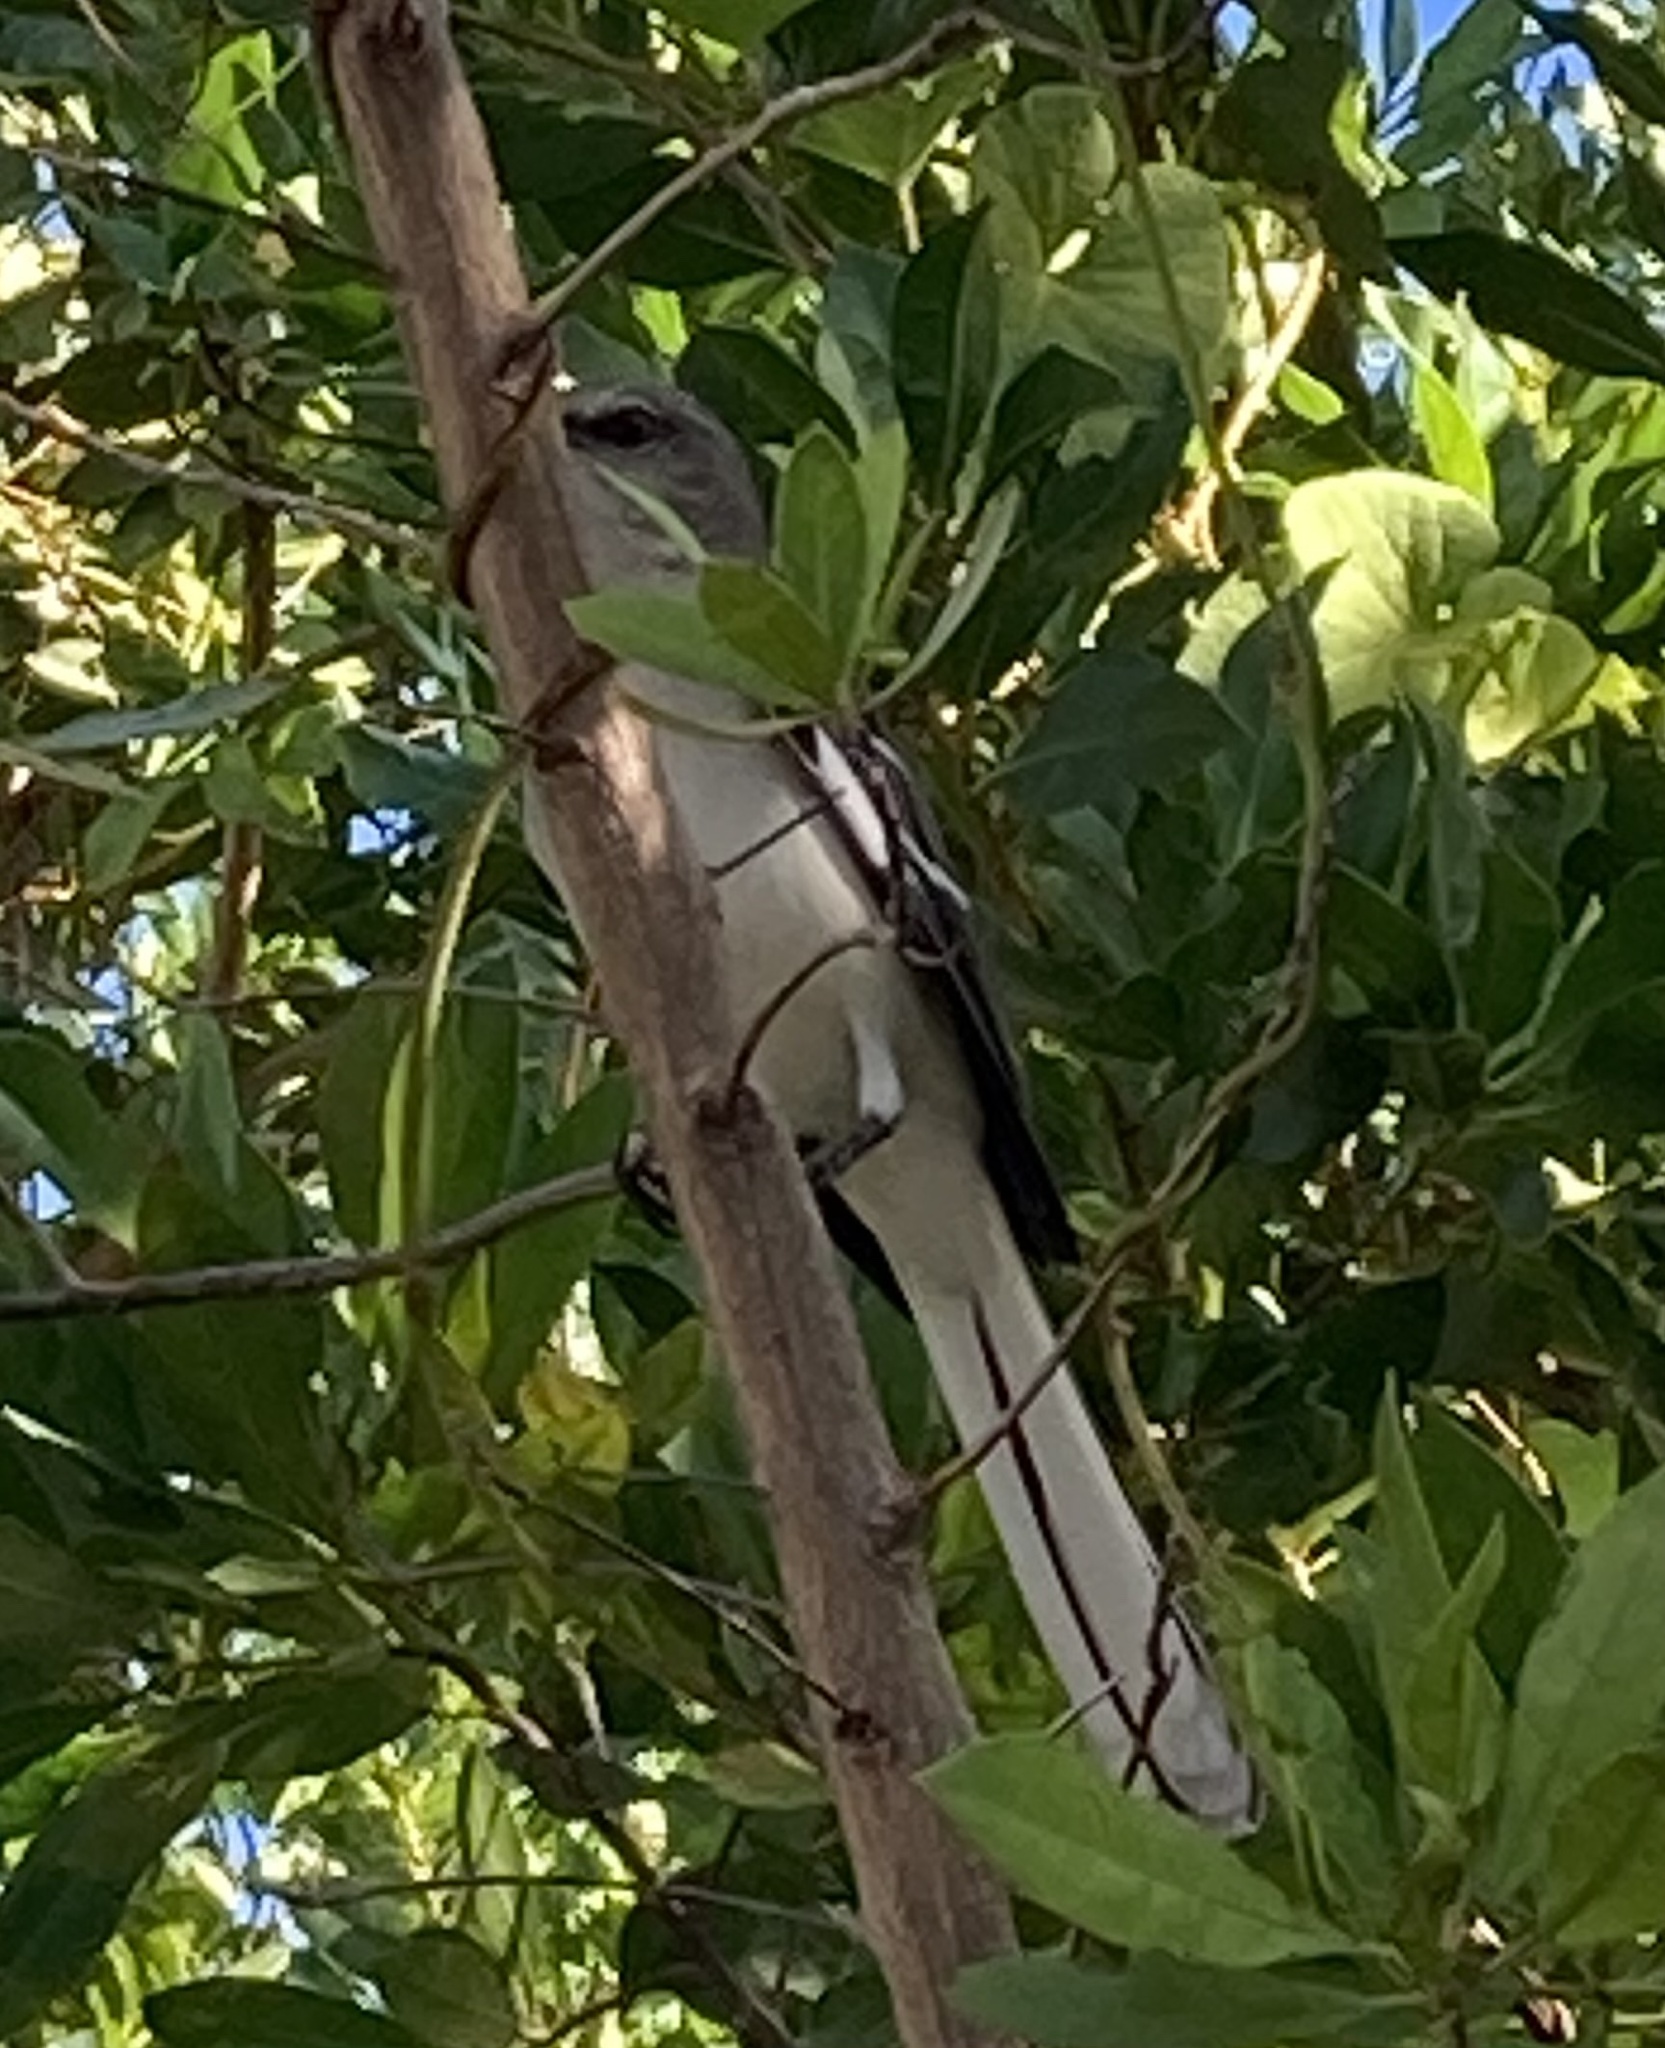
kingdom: Animalia
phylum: Chordata
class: Aves
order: Passeriformes
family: Mimidae
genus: Mimus
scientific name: Mimus polyglottos
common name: Northern mockingbird
